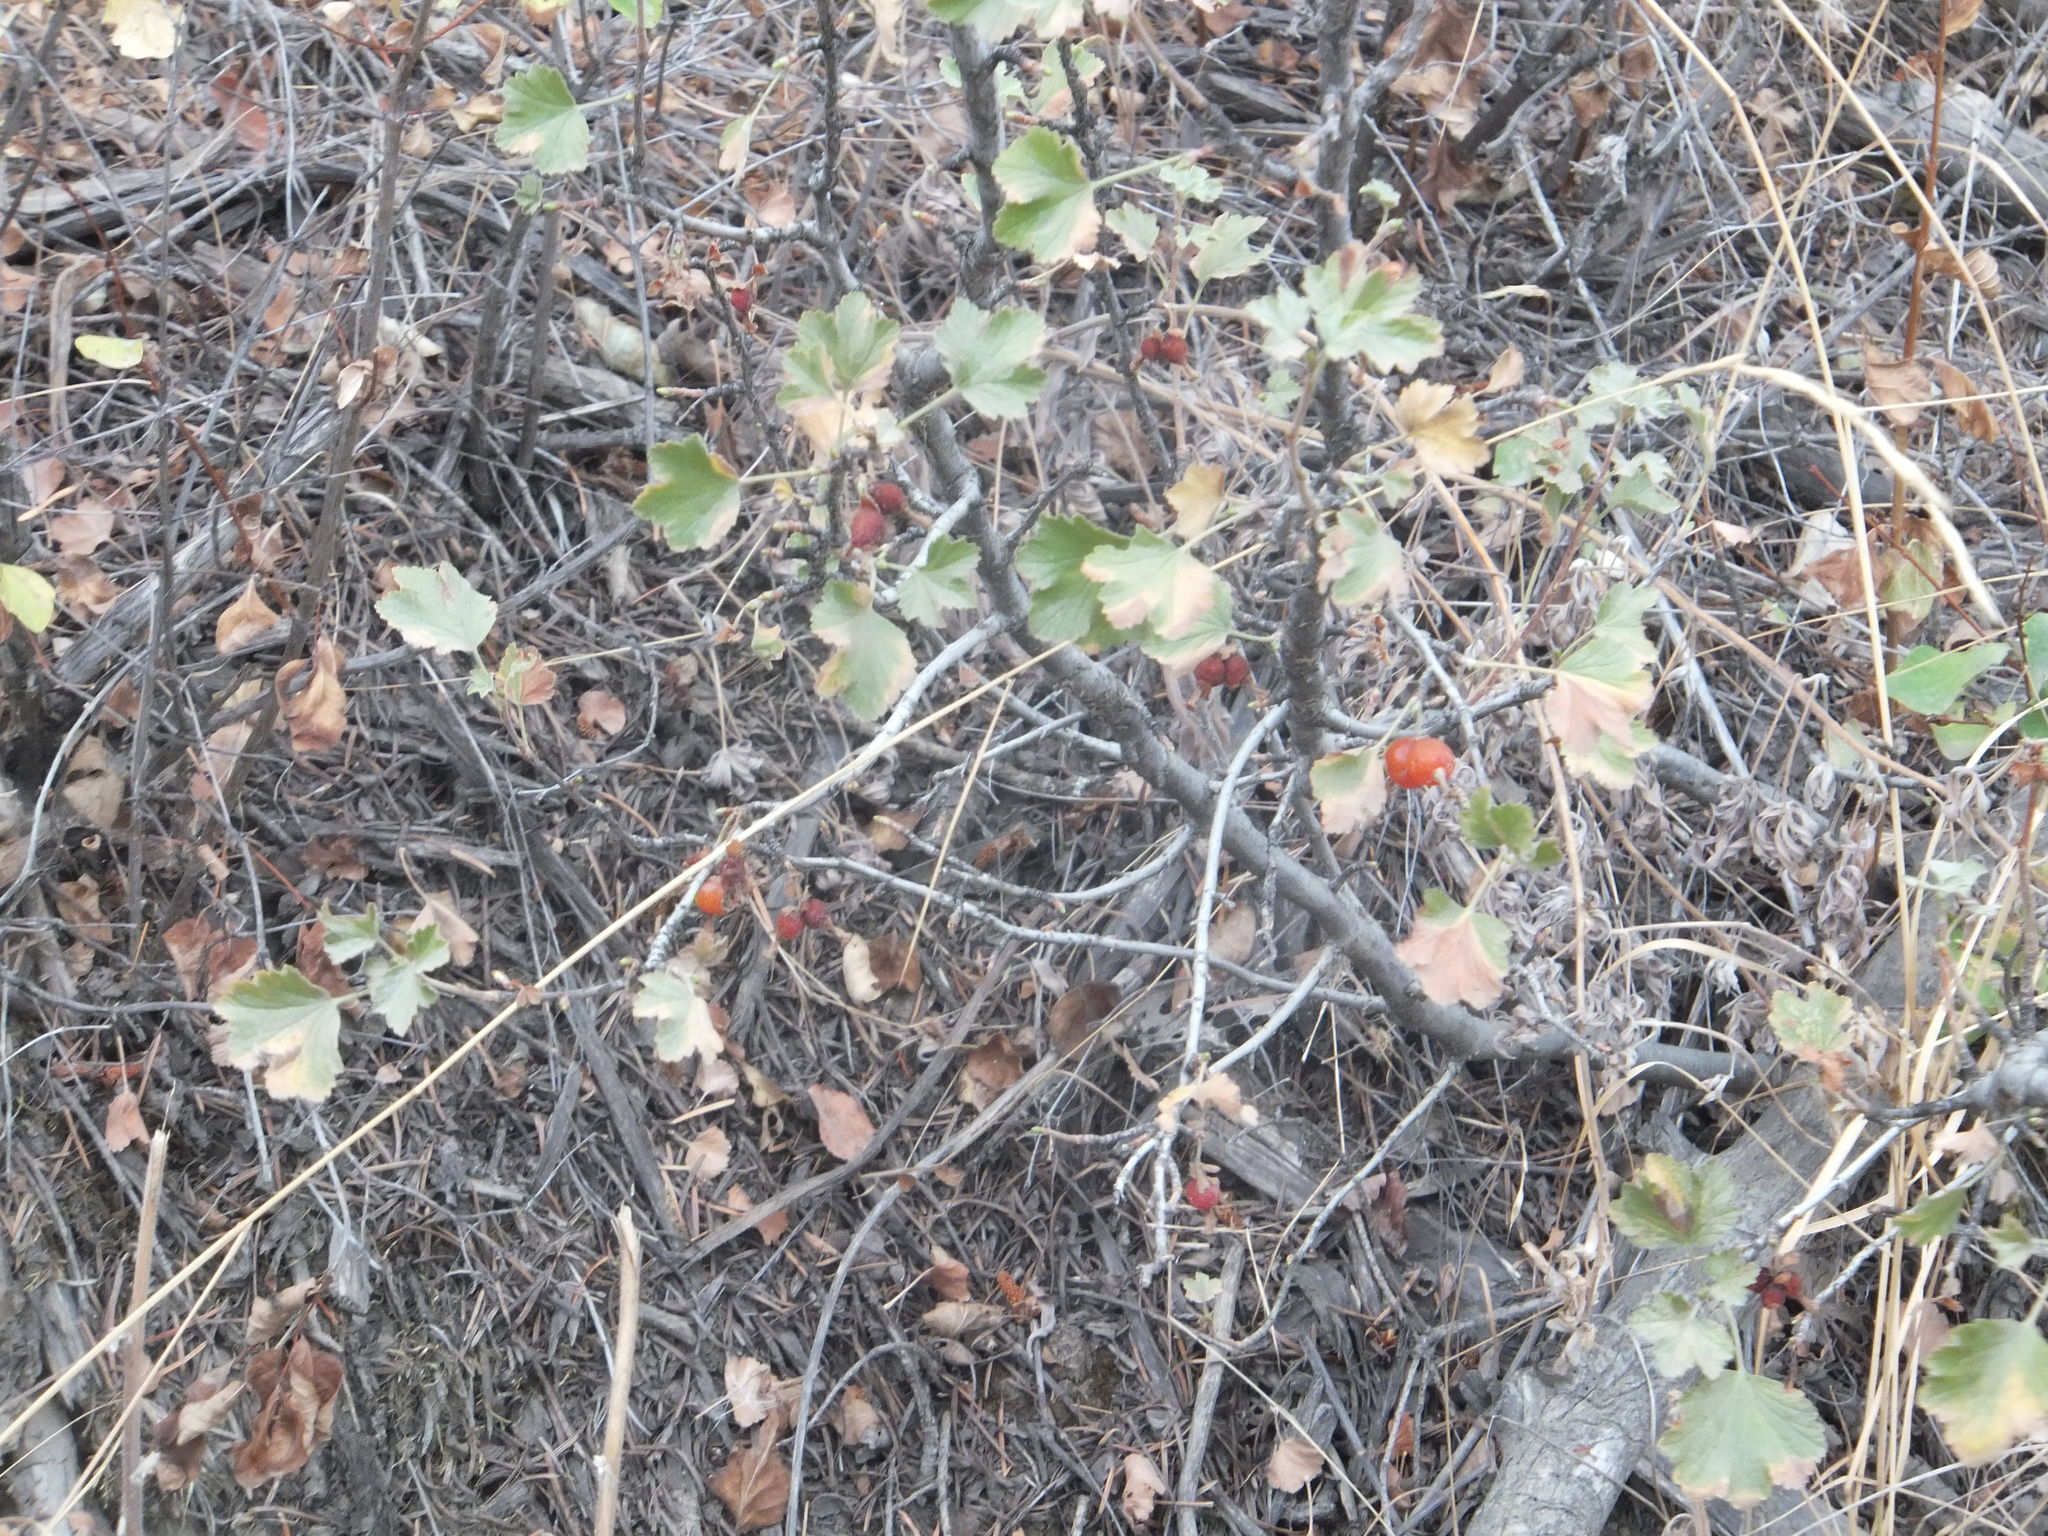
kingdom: Plantae
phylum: Tracheophyta
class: Magnoliopsida
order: Saxifragales
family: Grossulariaceae
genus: Ribes
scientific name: Ribes cereum
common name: Wax currant
